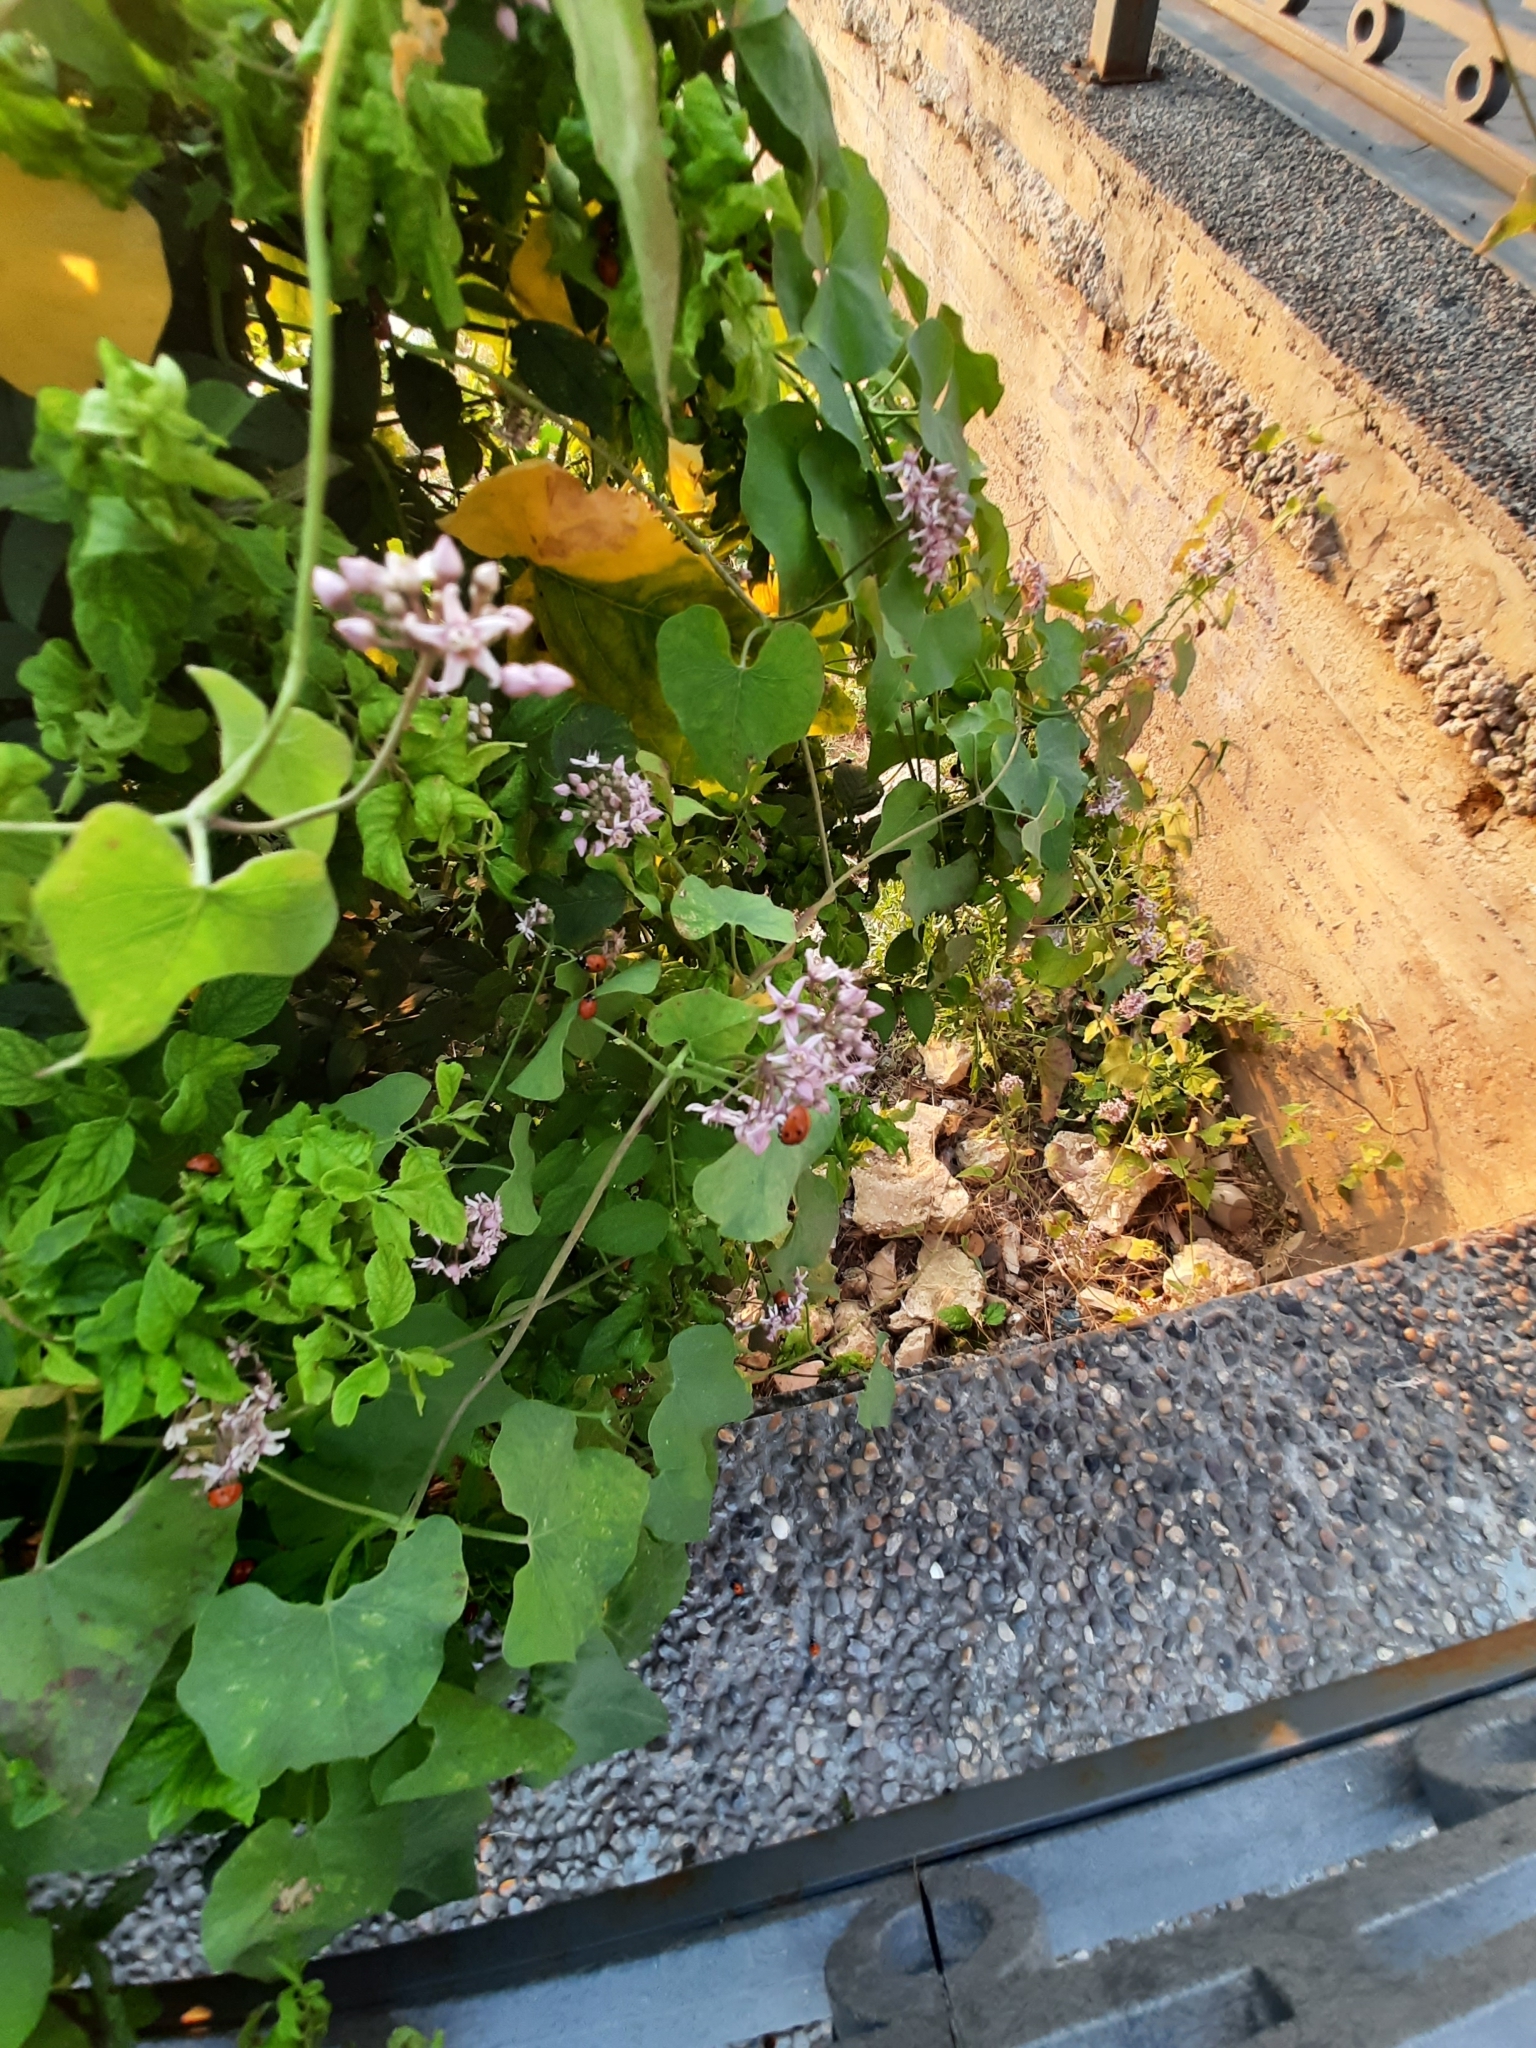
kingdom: Plantae
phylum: Tracheophyta
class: Magnoliopsida
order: Gentianales
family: Apocynaceae
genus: Cynanchum
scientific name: Cynanchum acutum
